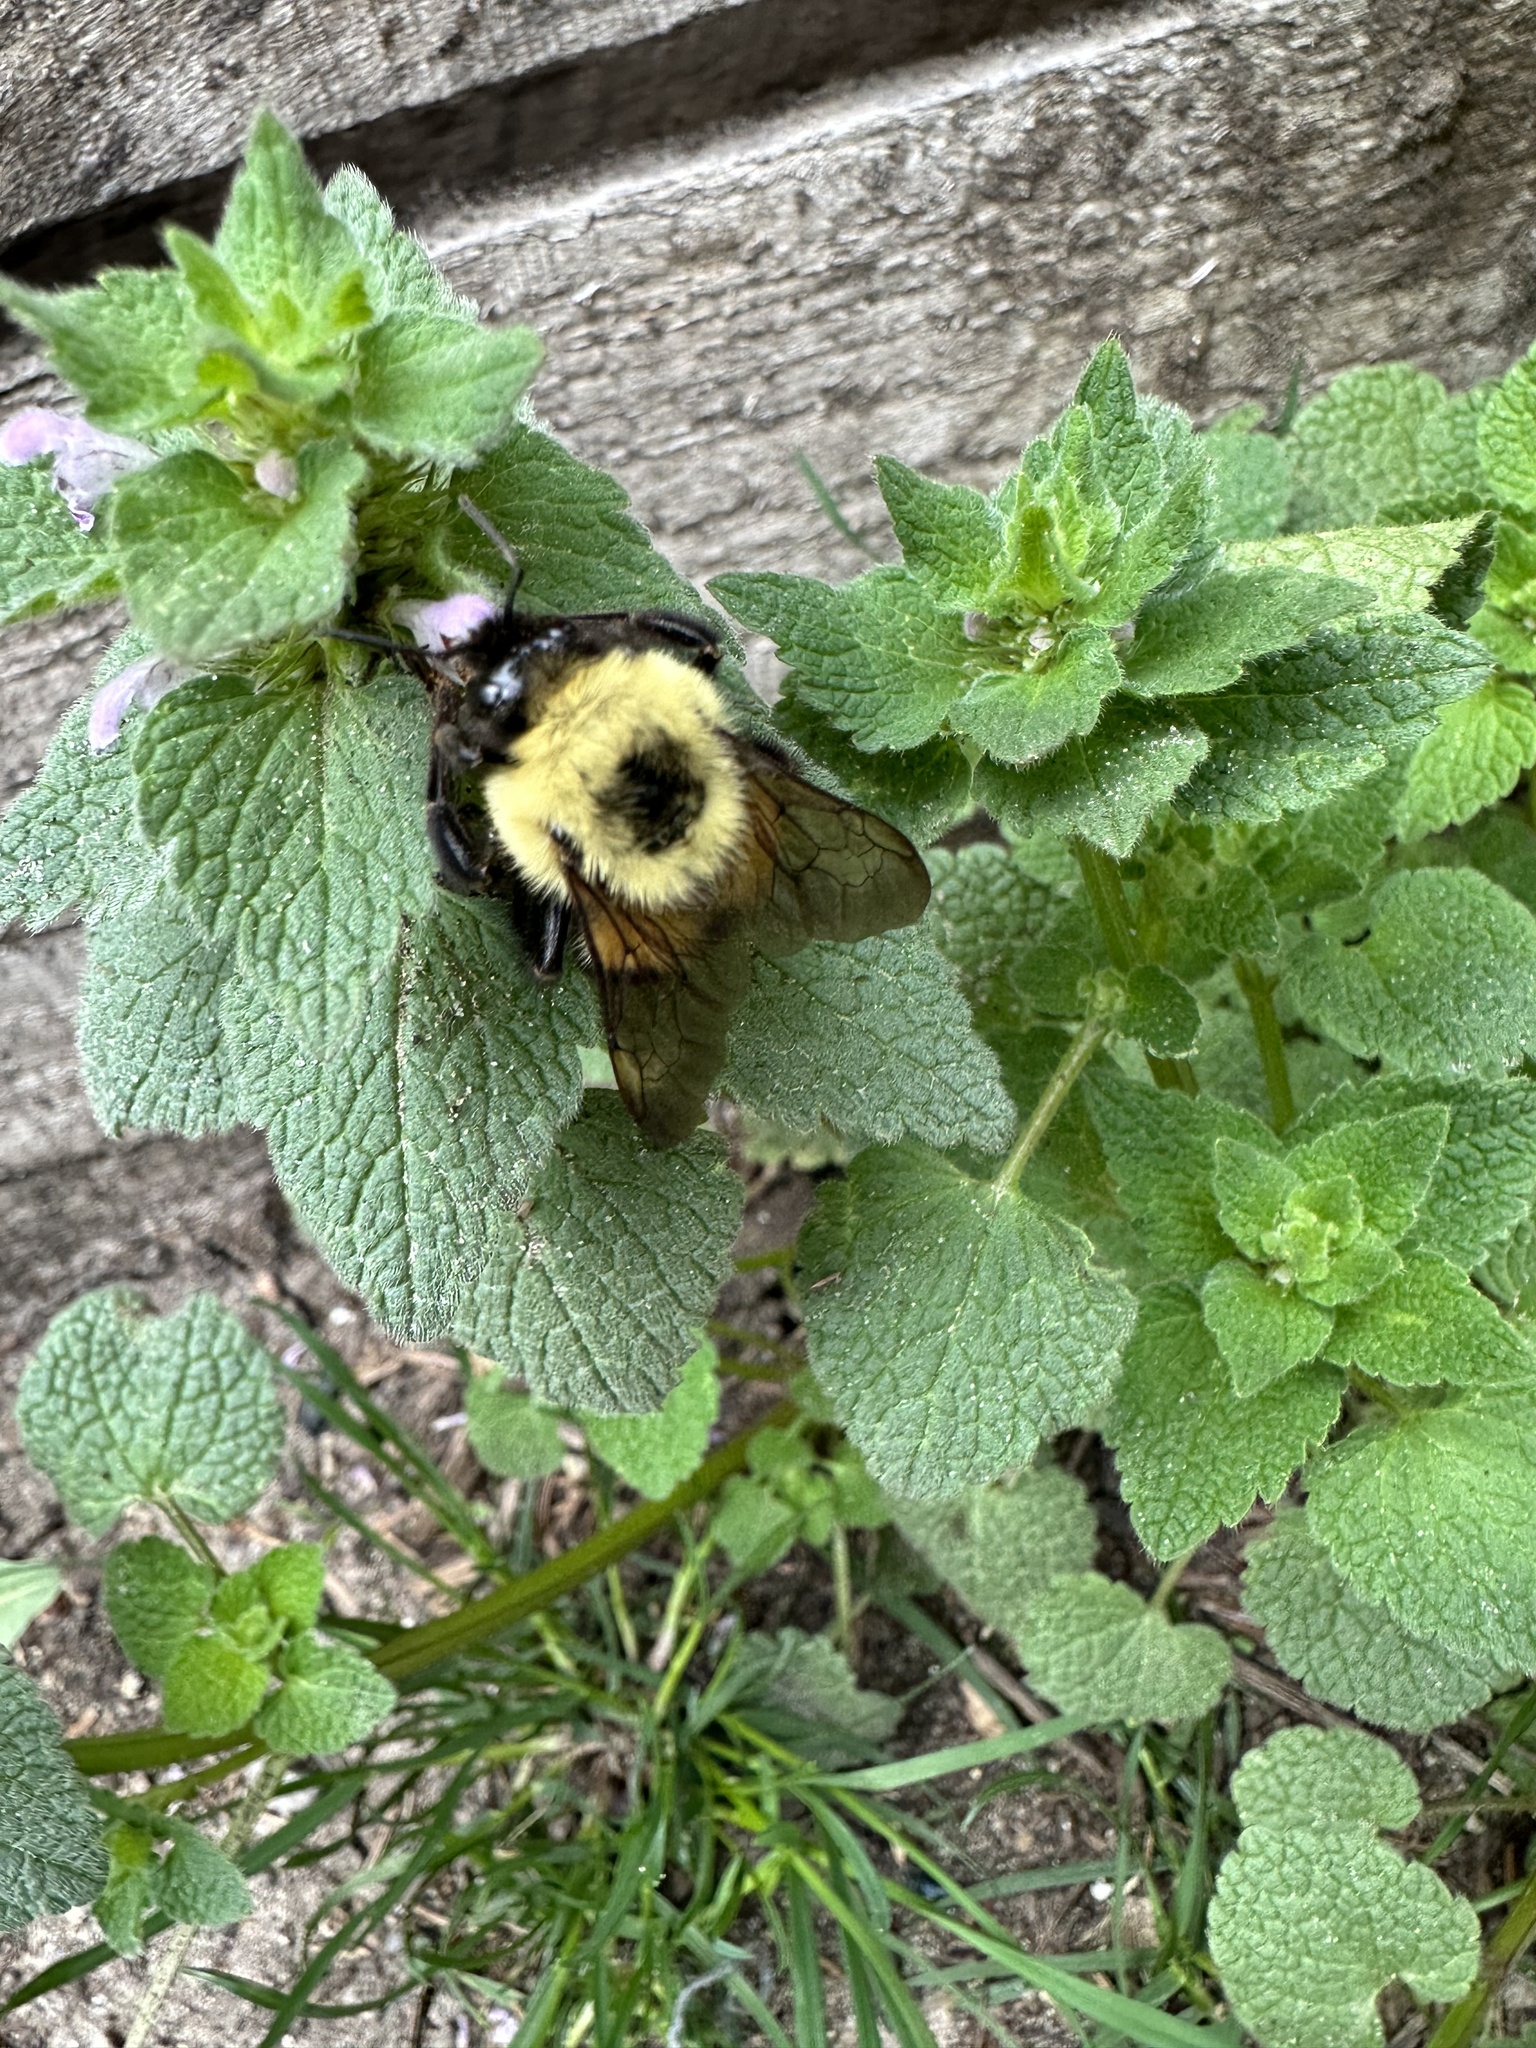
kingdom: Animalia
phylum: Arthropoda
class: Insecta
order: Hymenoptera
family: Apidae
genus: Bombus
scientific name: Bombus bimaculatus
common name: Two-spotted bumble bee
